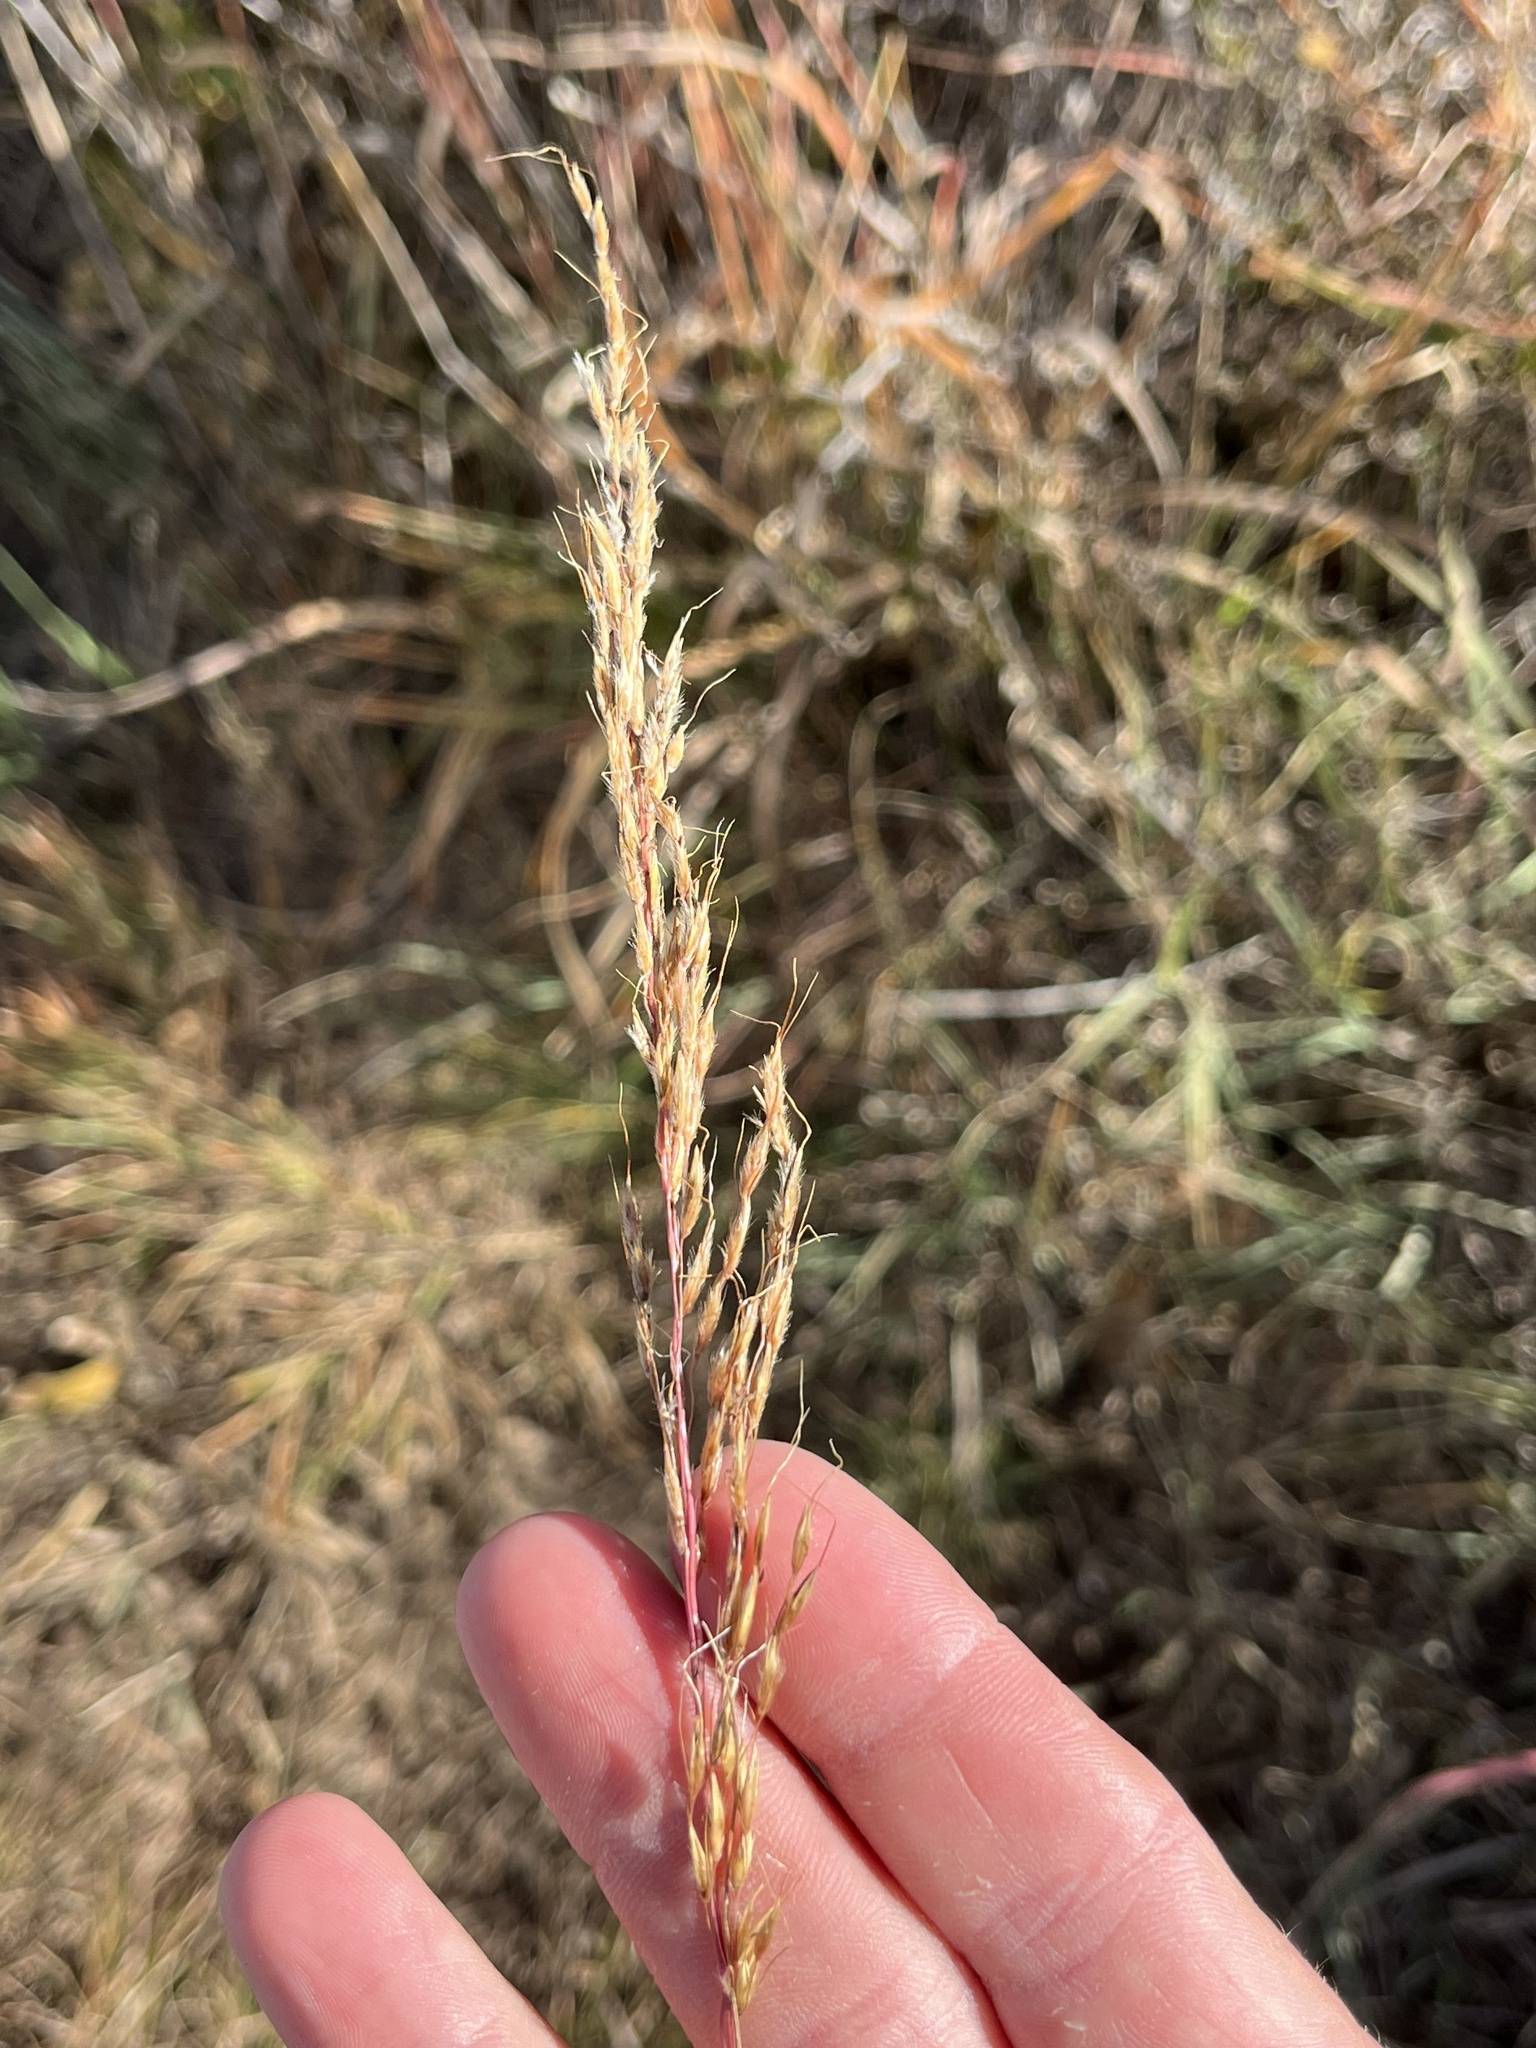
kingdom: Plantae
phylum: Tracheophyta
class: Liliopsida
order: Poales
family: Poaceae
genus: Sorghastrum
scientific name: Sorghastrum nutans
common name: Indian grass
